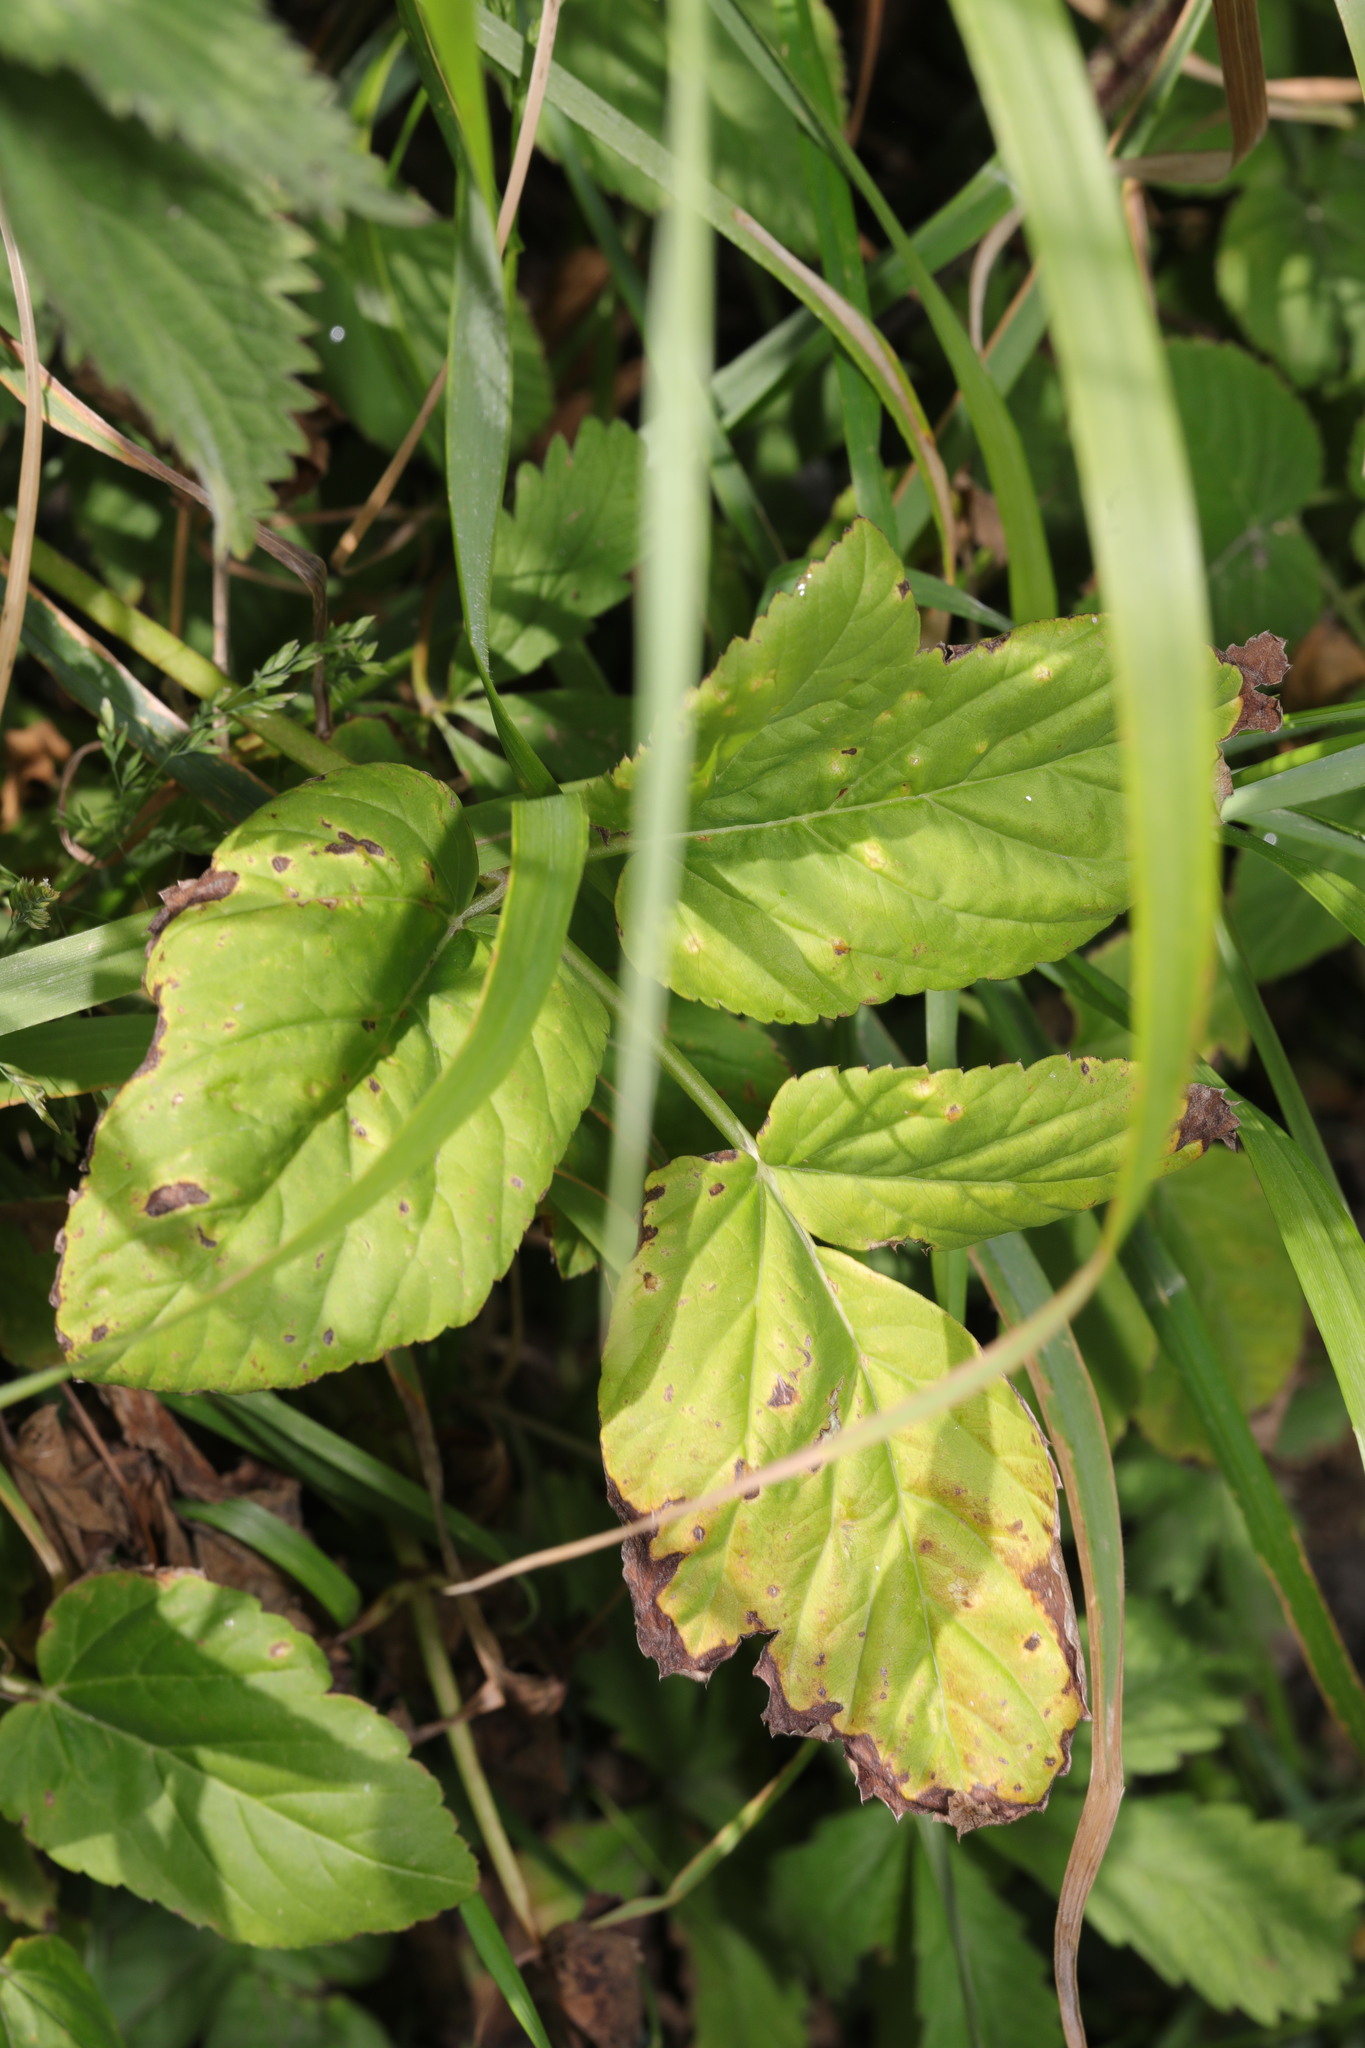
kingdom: Plantae
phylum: Tracheophyta
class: Magnoliopsida
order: Apiales
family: Apiaceae
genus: Aegopodium
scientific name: Aegopodium podagraria
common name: Ground-elder
